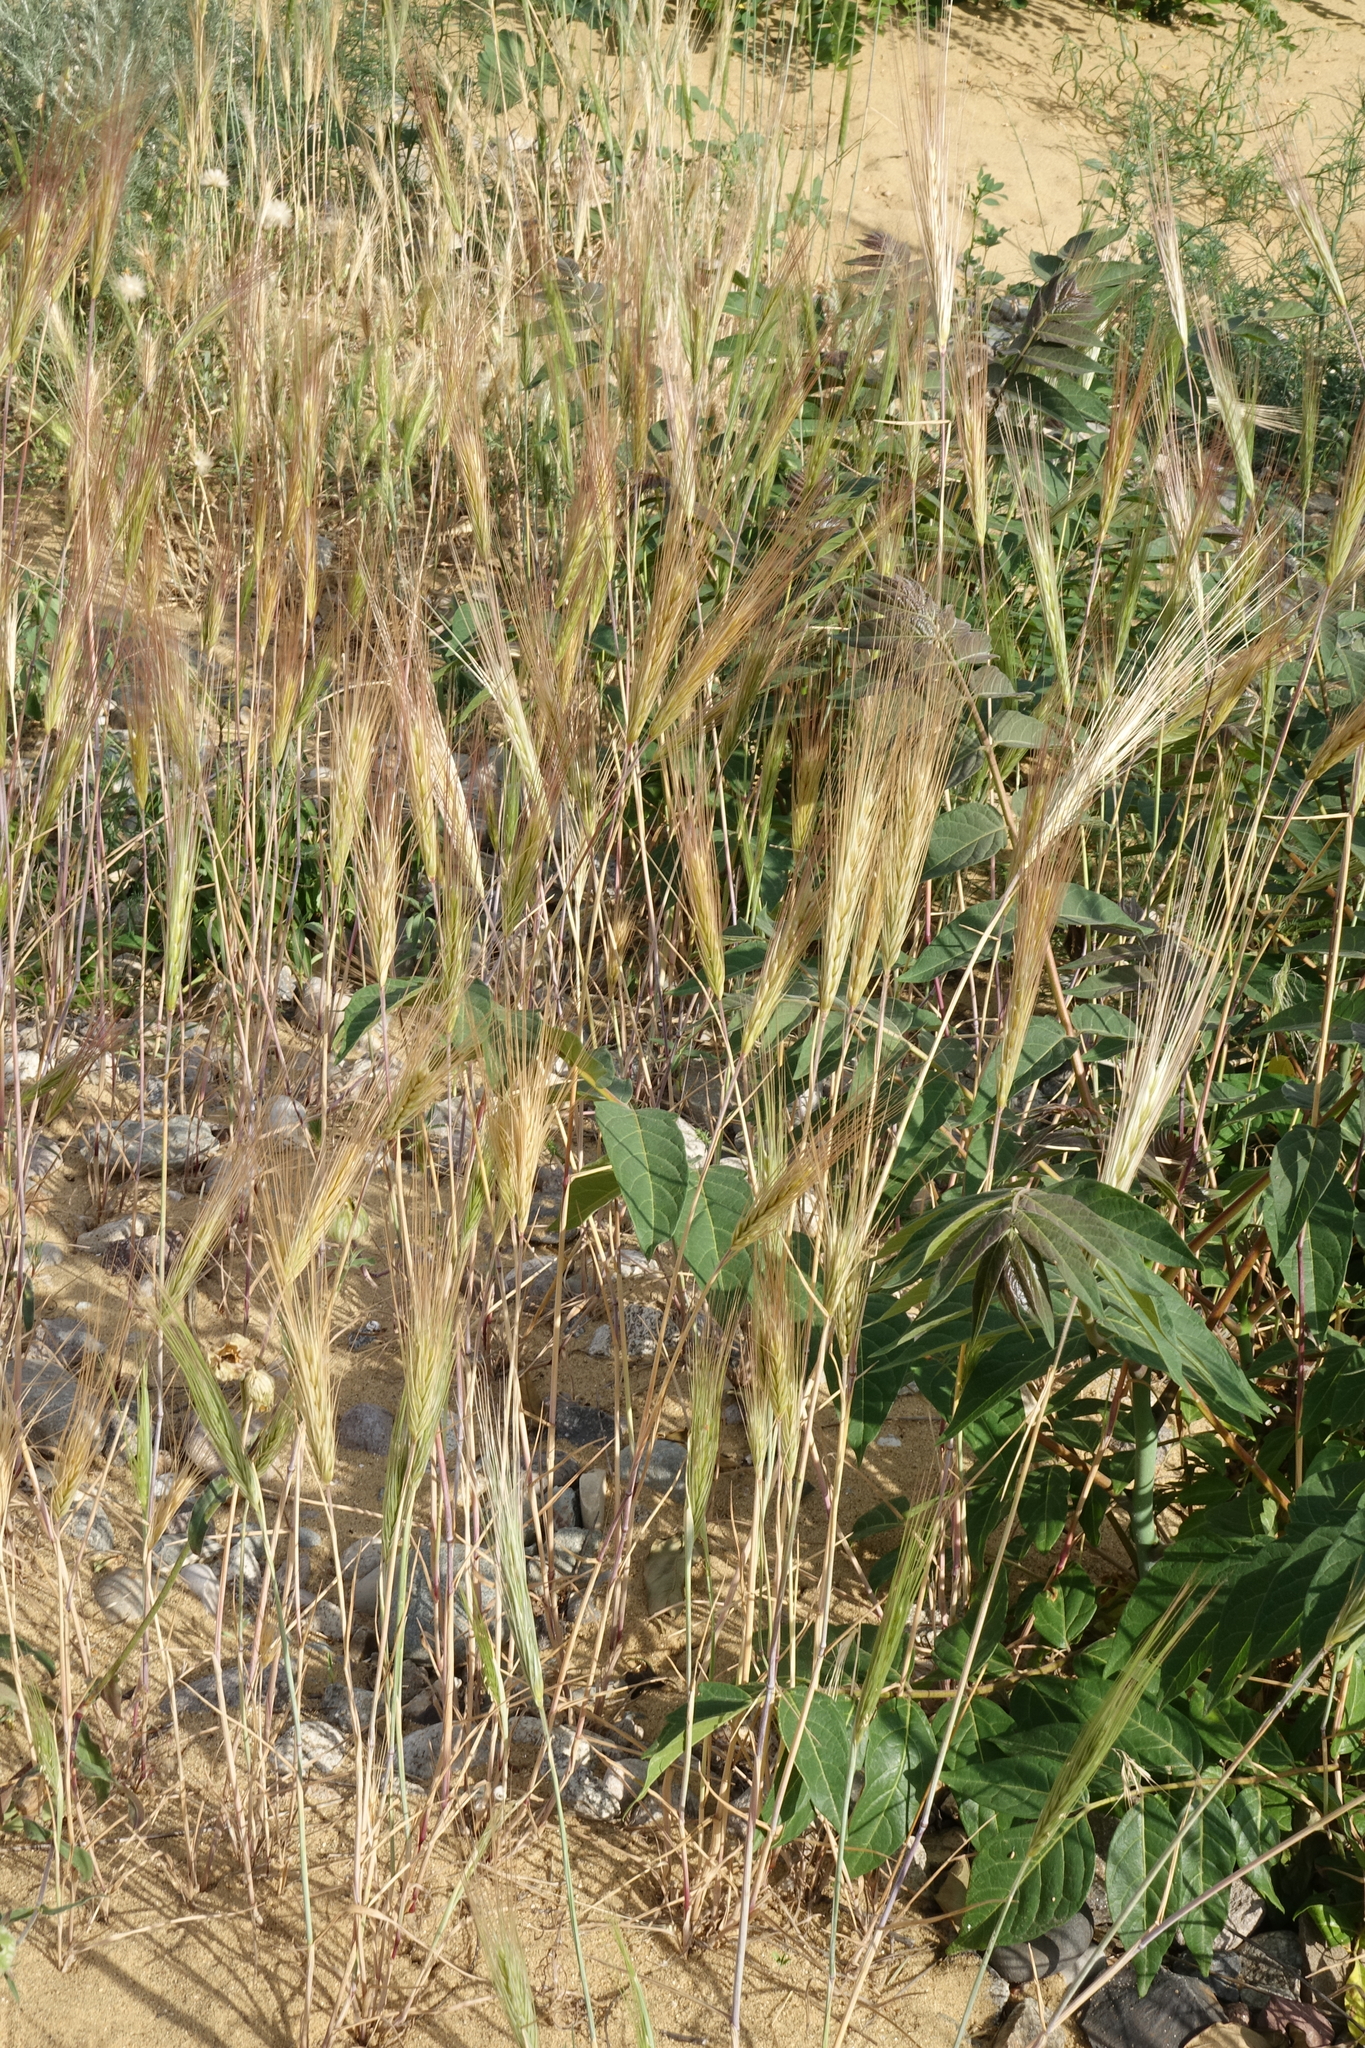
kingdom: Plantae
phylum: Tracheophyta
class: Liliopsida
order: Poales
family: Poaceae
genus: Hordeum
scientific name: Hordeum murinum
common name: Wall barley
